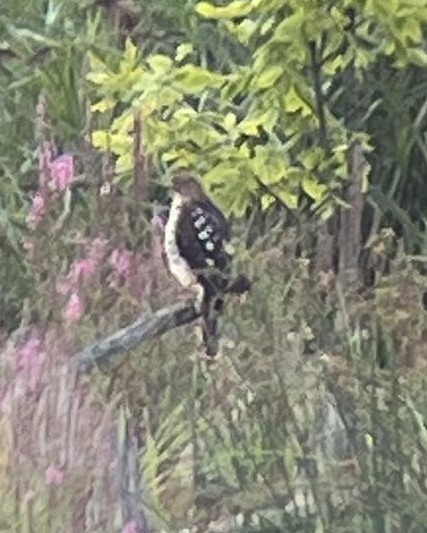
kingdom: Animalia
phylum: Chordata
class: Aves
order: Accipitriformes
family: Accipitridae
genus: Accipiter
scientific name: Accipiter cooperii
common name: Cooper's hawk
